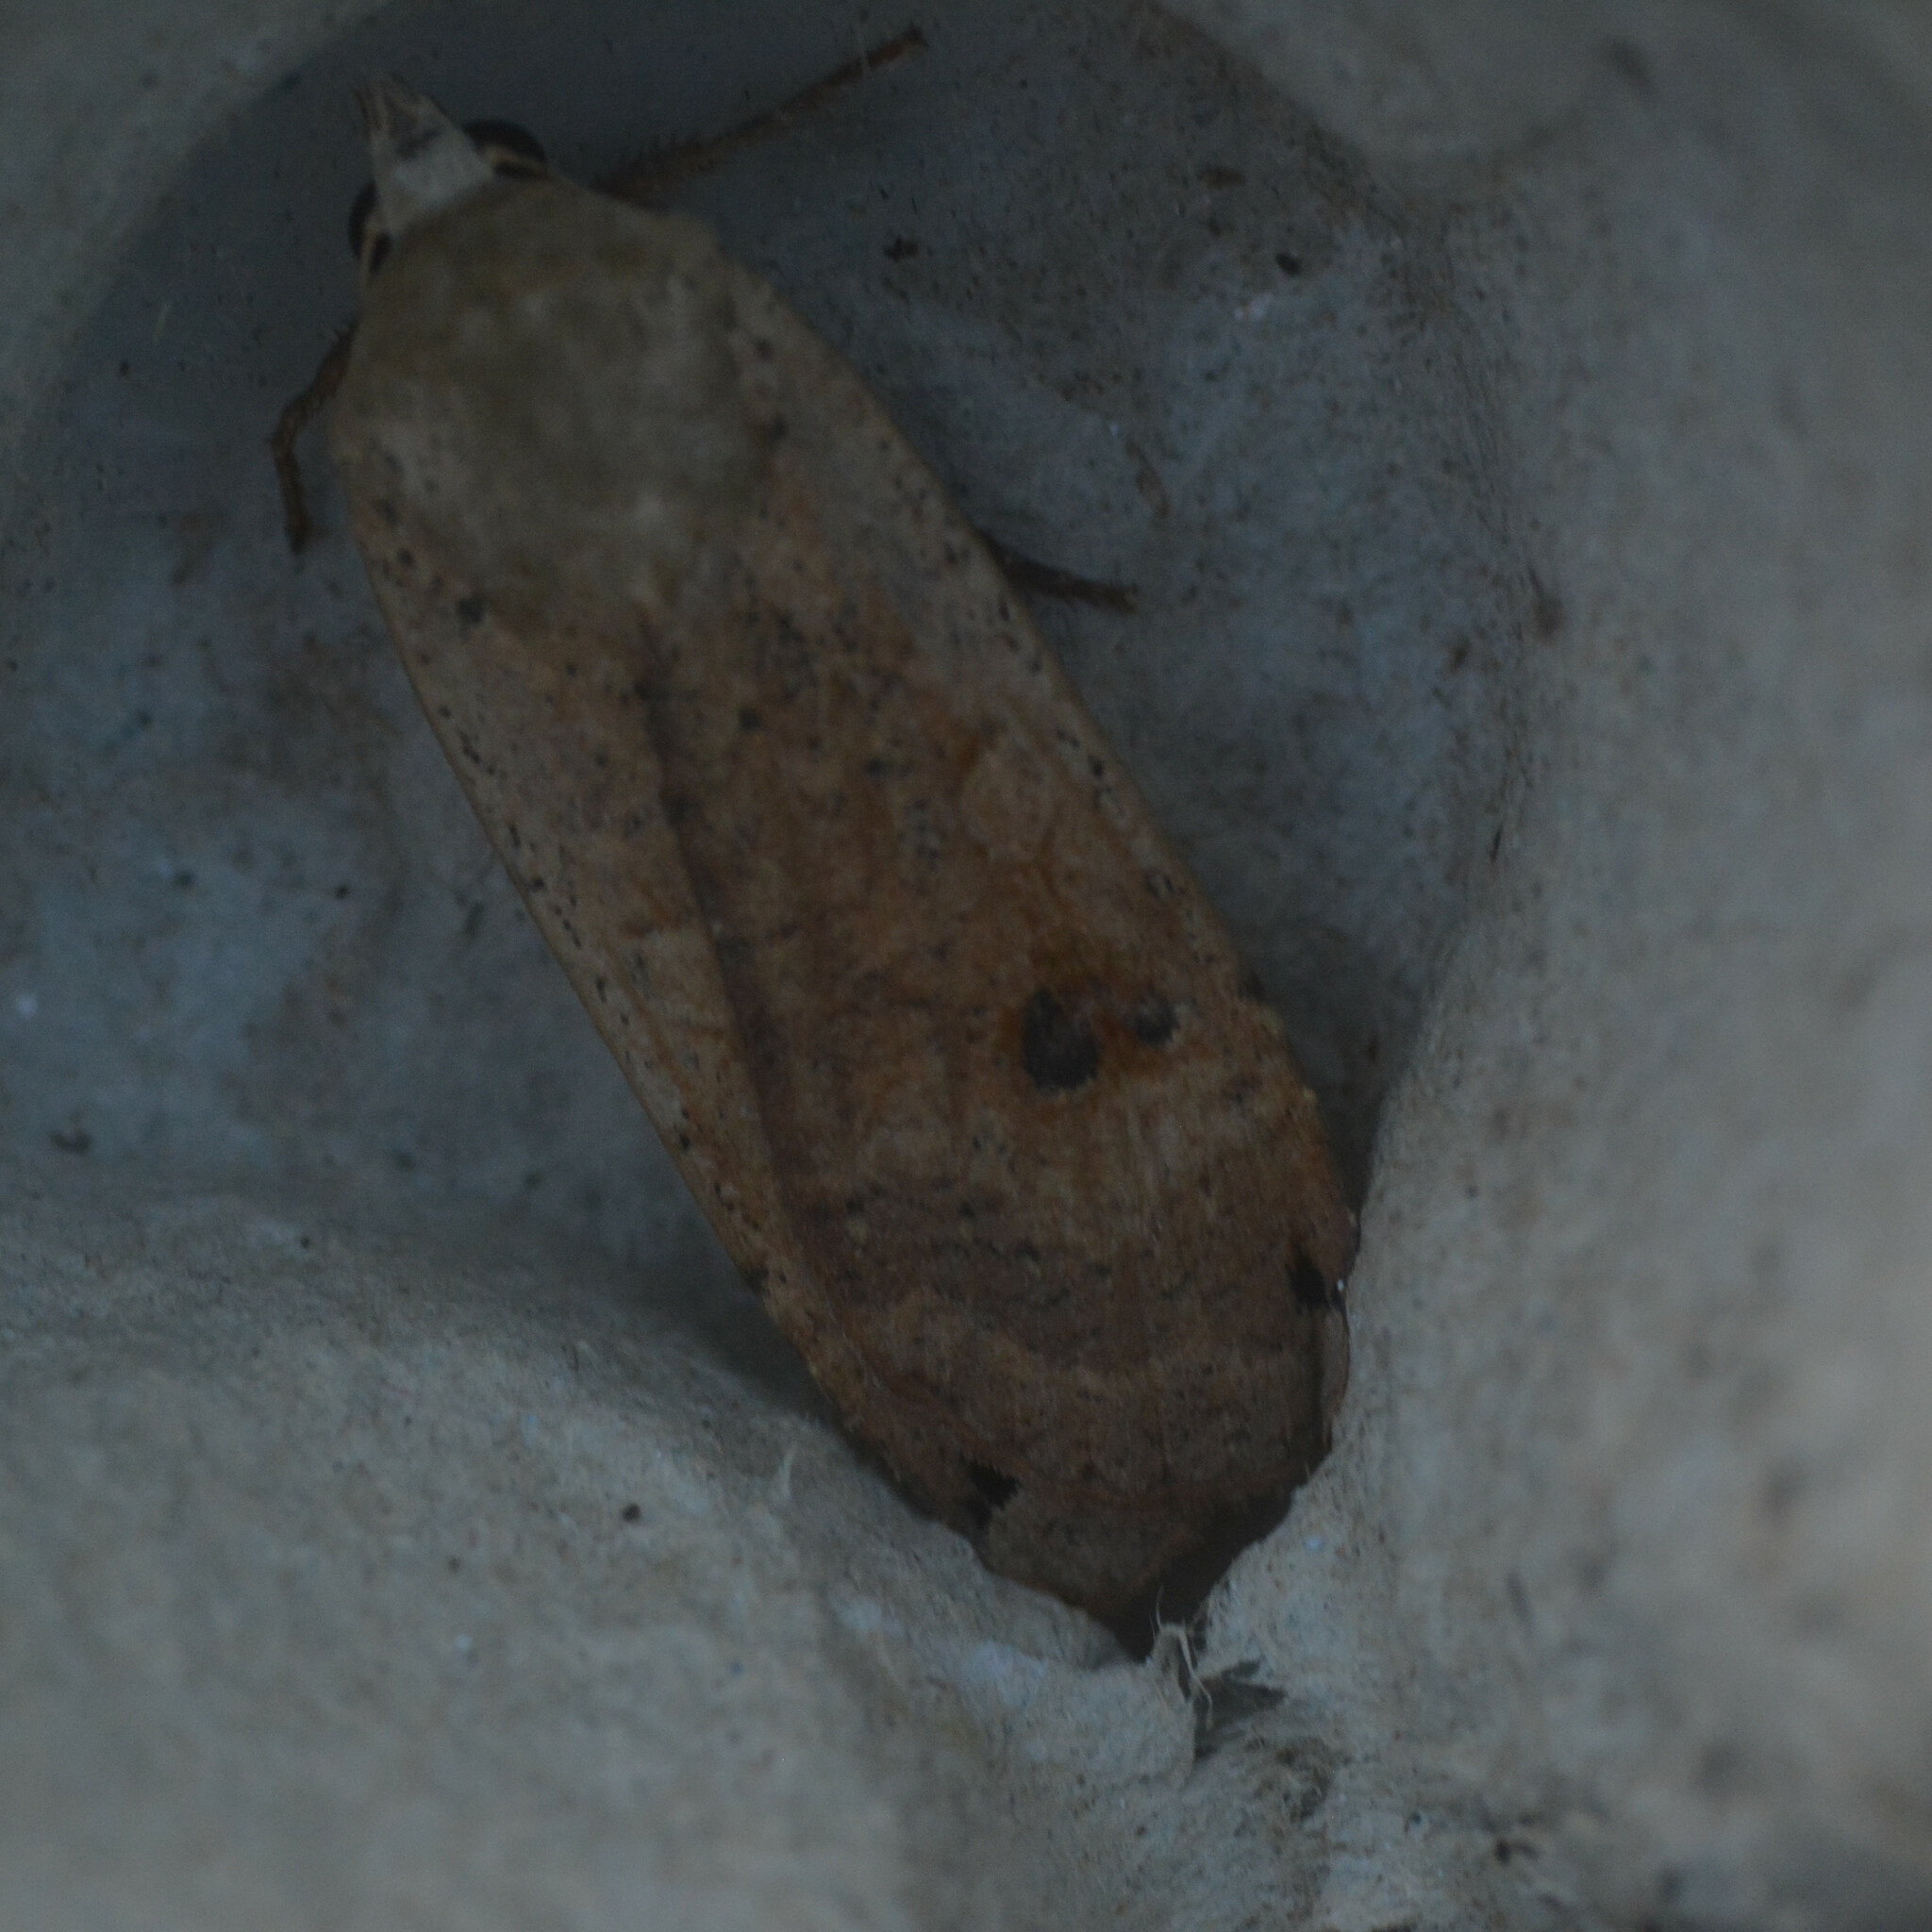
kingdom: Animalia
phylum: Arthropoda
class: Insecta
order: Lepidoptera
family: Noctuidae
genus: Noctua
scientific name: Noctua pronuba
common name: Large yellow underwing
